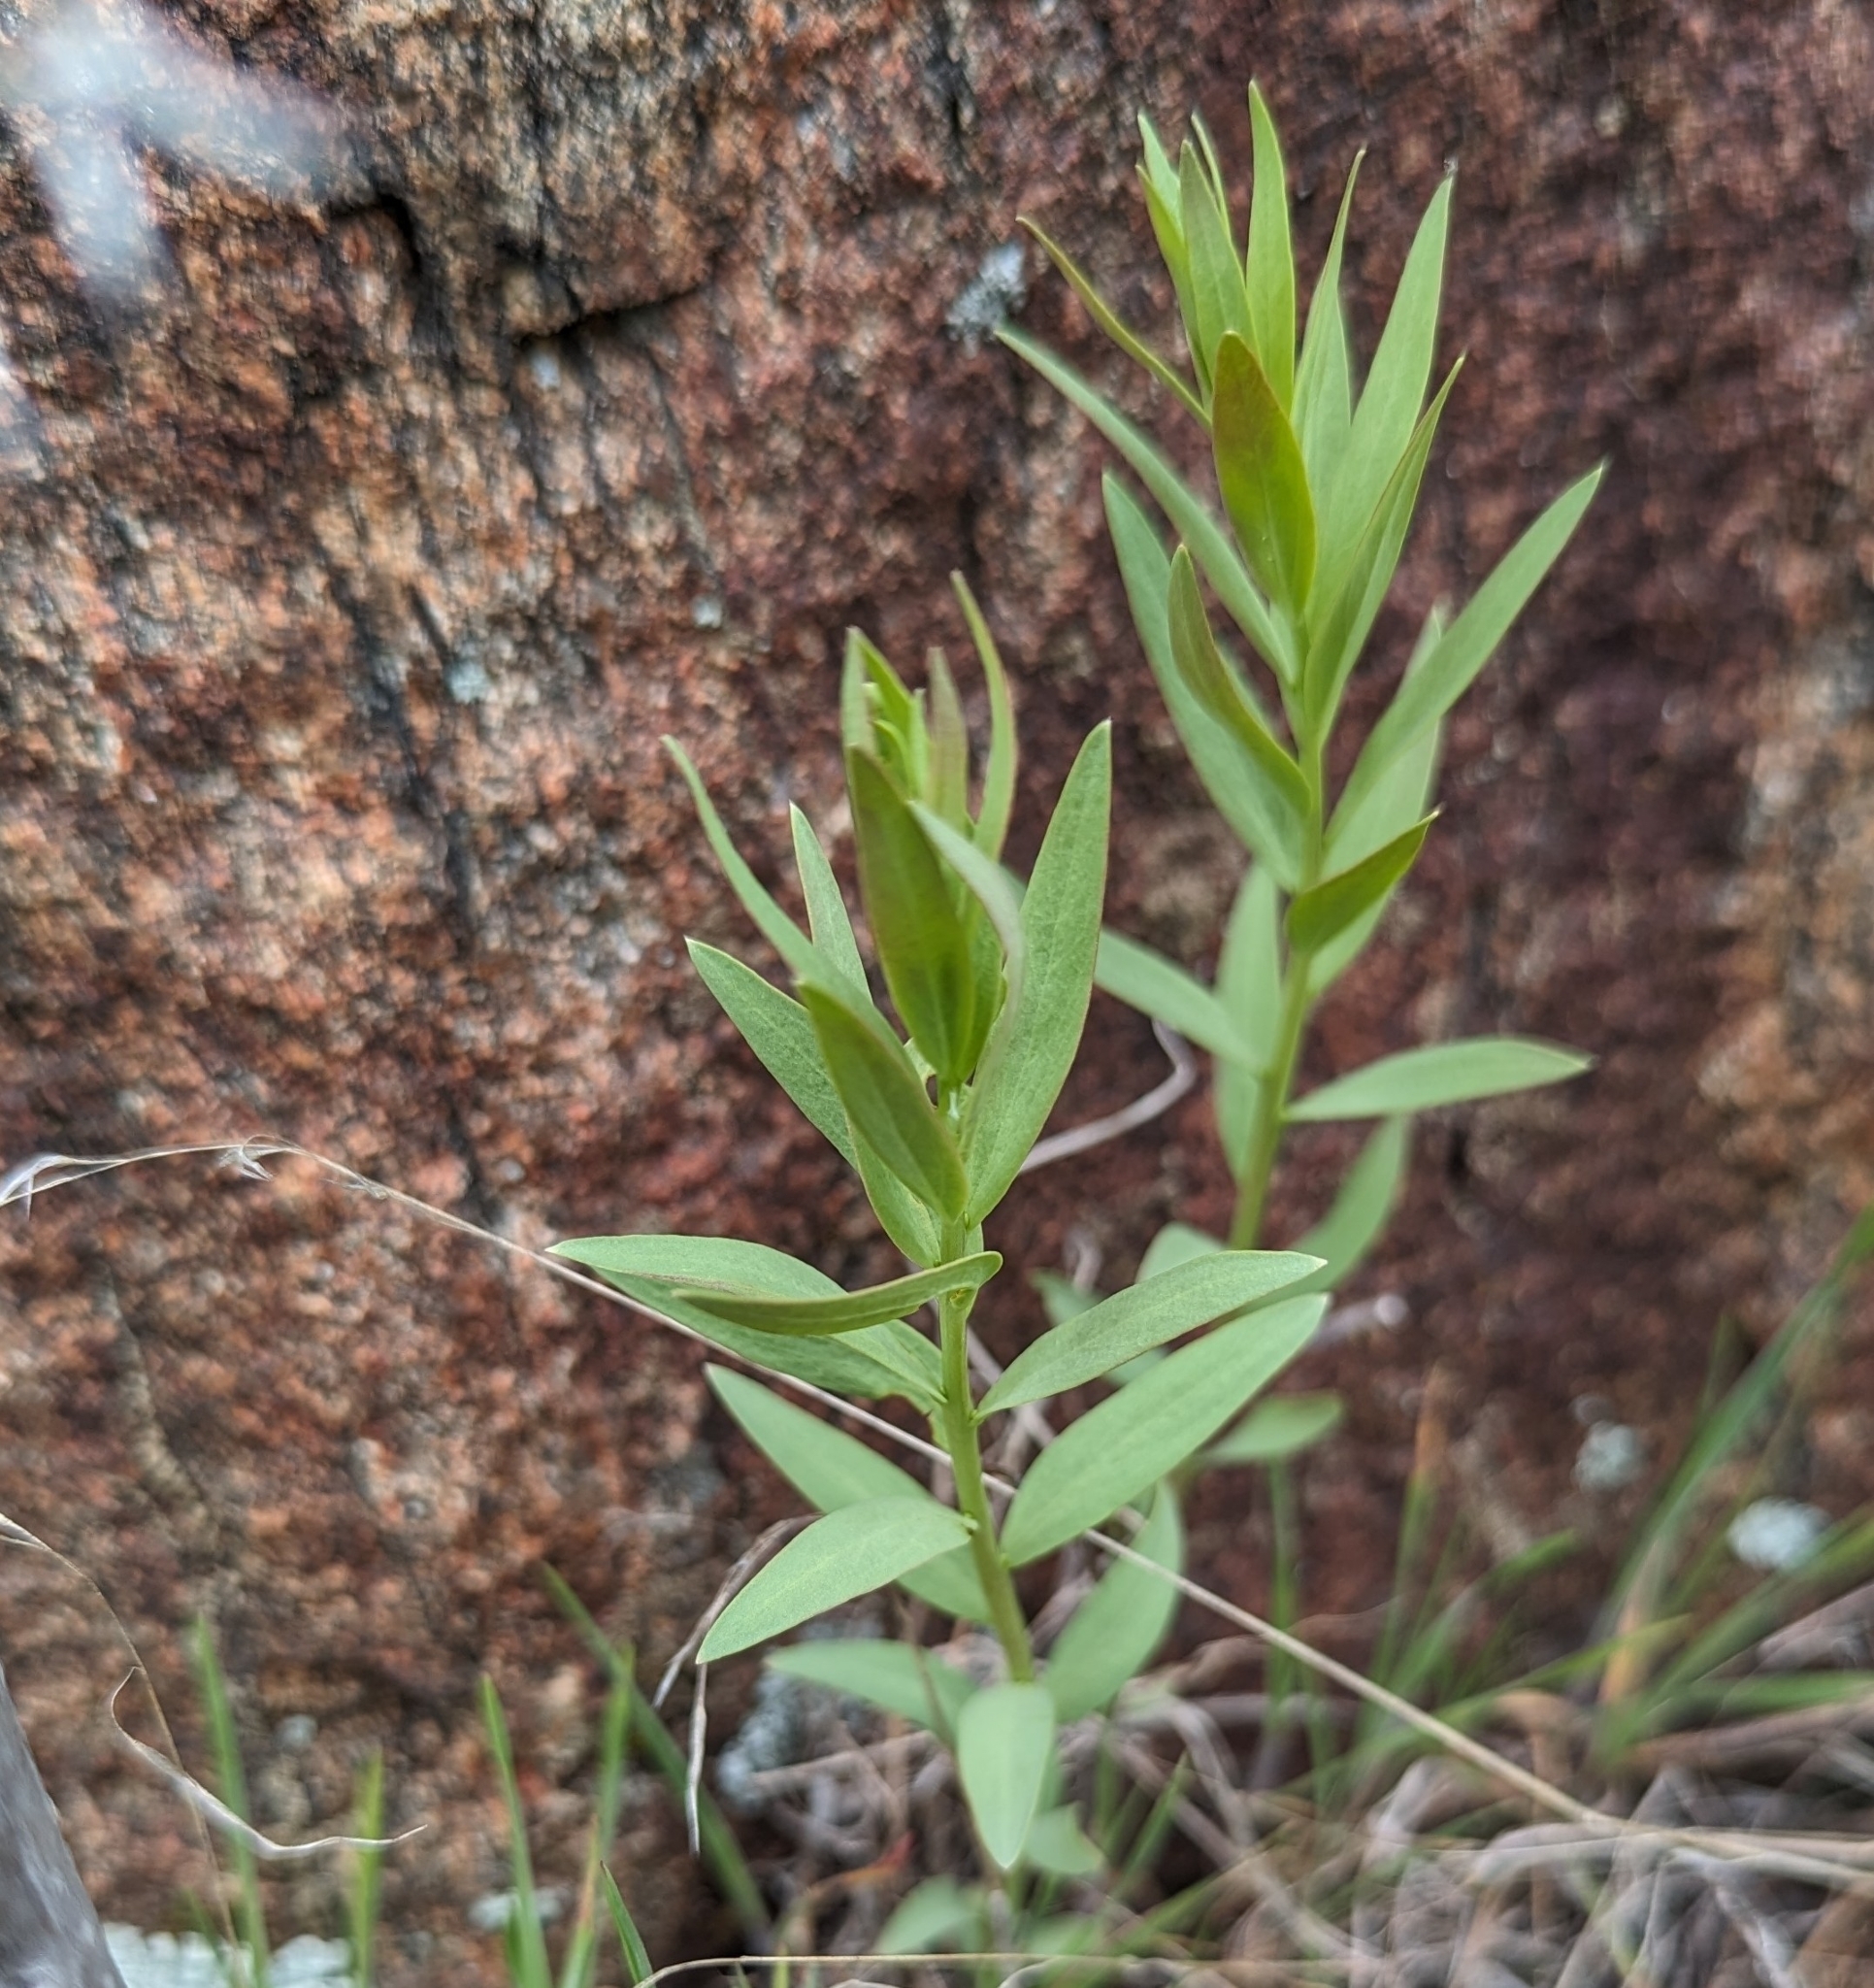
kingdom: Plantae
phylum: Tracheophyta
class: Magnoliopsida
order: Santalales
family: Comandraceae
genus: Comandra
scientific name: Comandra umbellata
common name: Bastard toadflax
